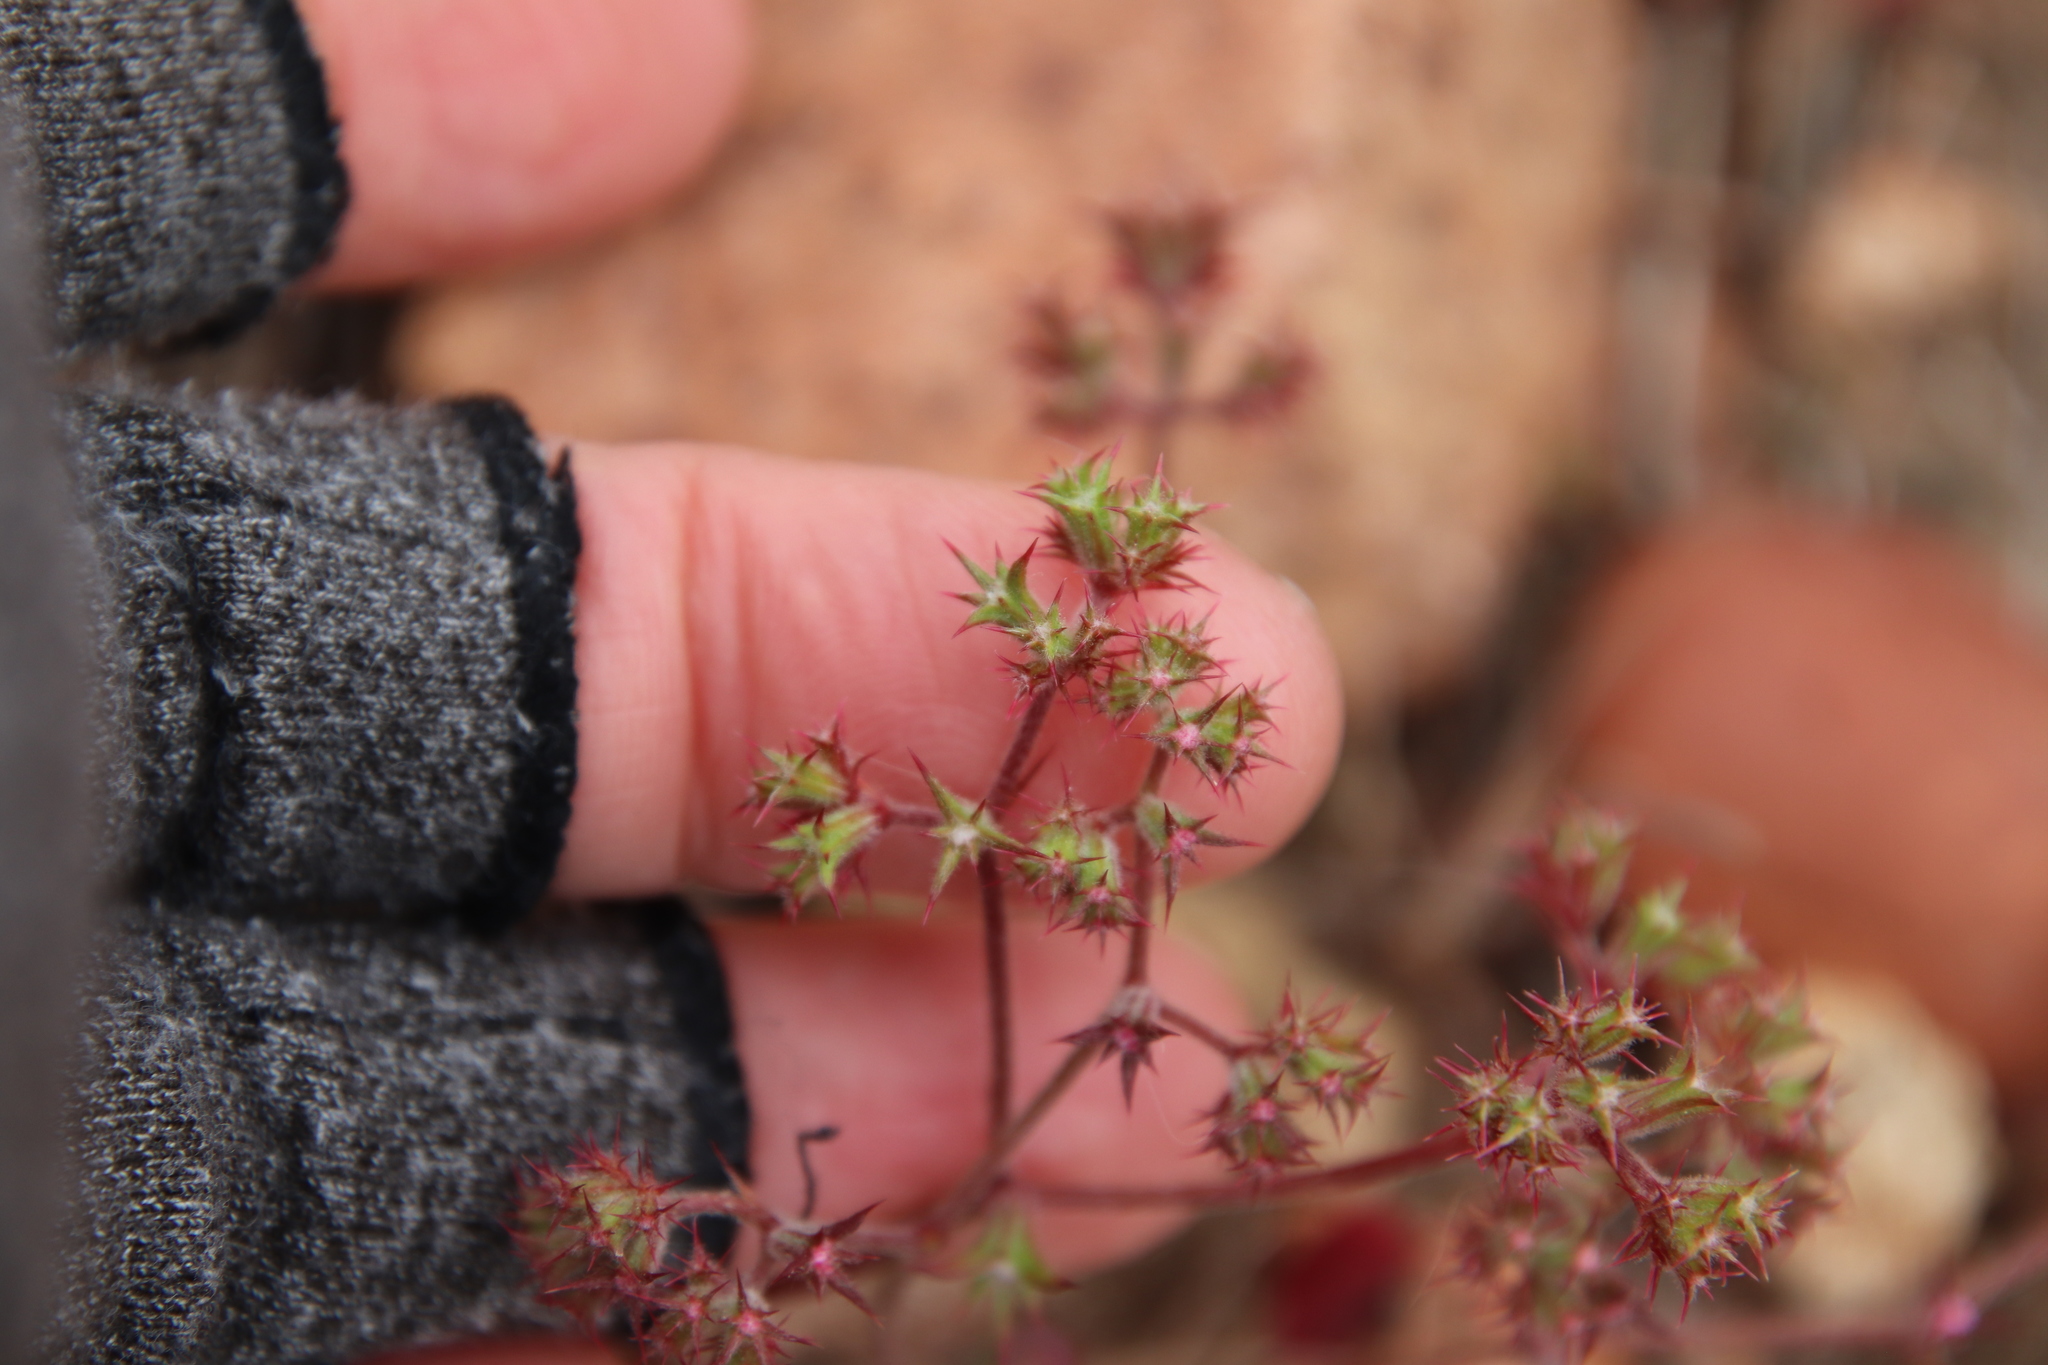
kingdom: Plantae
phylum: Tracheophyta
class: Magnoliopsida
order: Caryophyllales
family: Polygonaceae
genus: Chorizanthe
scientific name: Chorizanthe fimbriata
